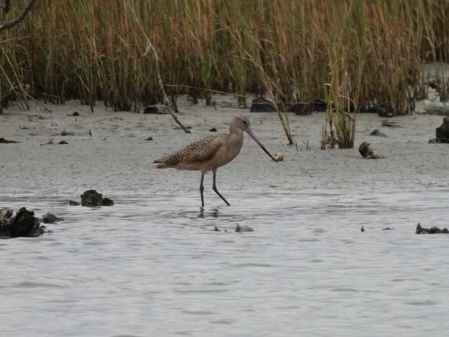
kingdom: Animalia
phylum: Chordata
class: Aves
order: Charadriiformes
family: Scolopacidae
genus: Limosa
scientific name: Limosa fedoa
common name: Marbled godwit
